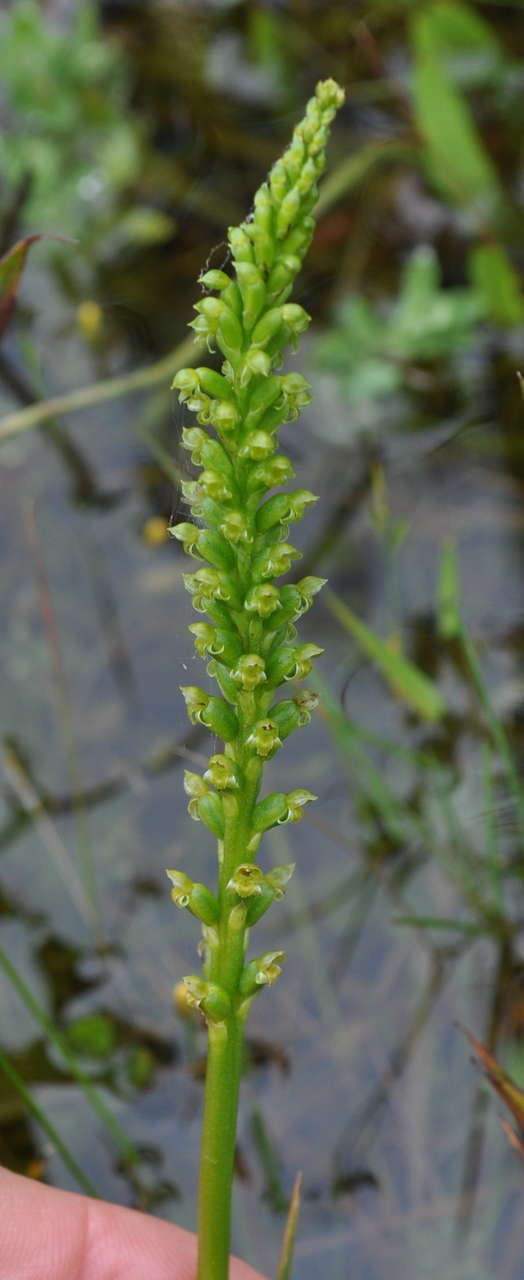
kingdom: Plantae
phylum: Tracheophyta
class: Liliopsida
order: Asparagales
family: Orchidaceae
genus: Microtis
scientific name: Microtis unifolia
